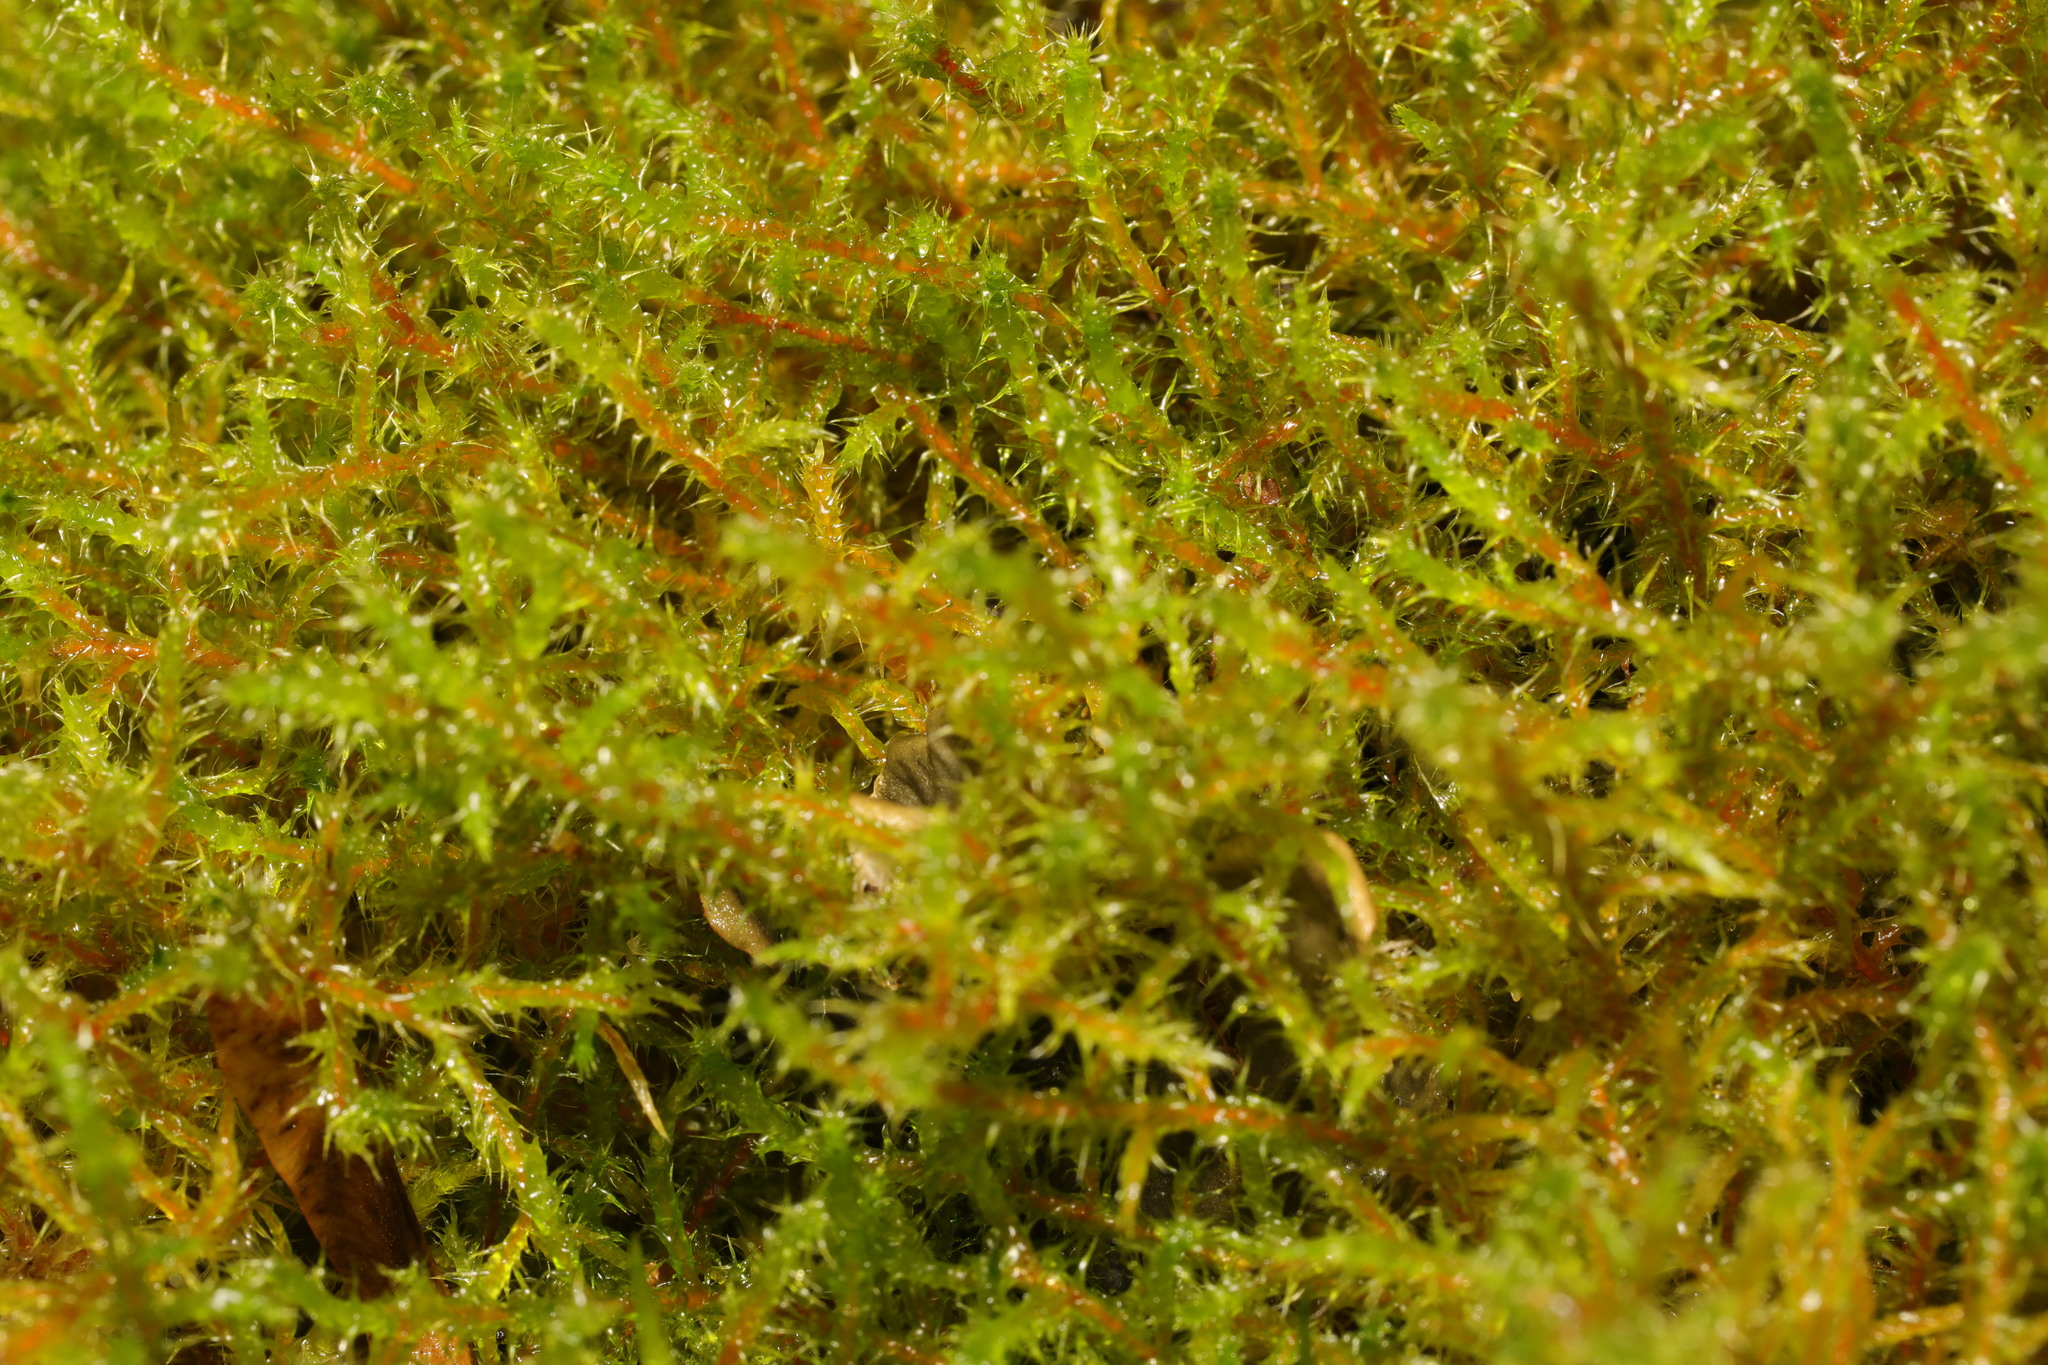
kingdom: Plantae
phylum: Bryophyta
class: Bryopsida
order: Hypnales
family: Hylocomiaceae
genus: Rhytidiadelphus
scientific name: Rhytidiadelphus squarrosus
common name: Springy turf-moss
